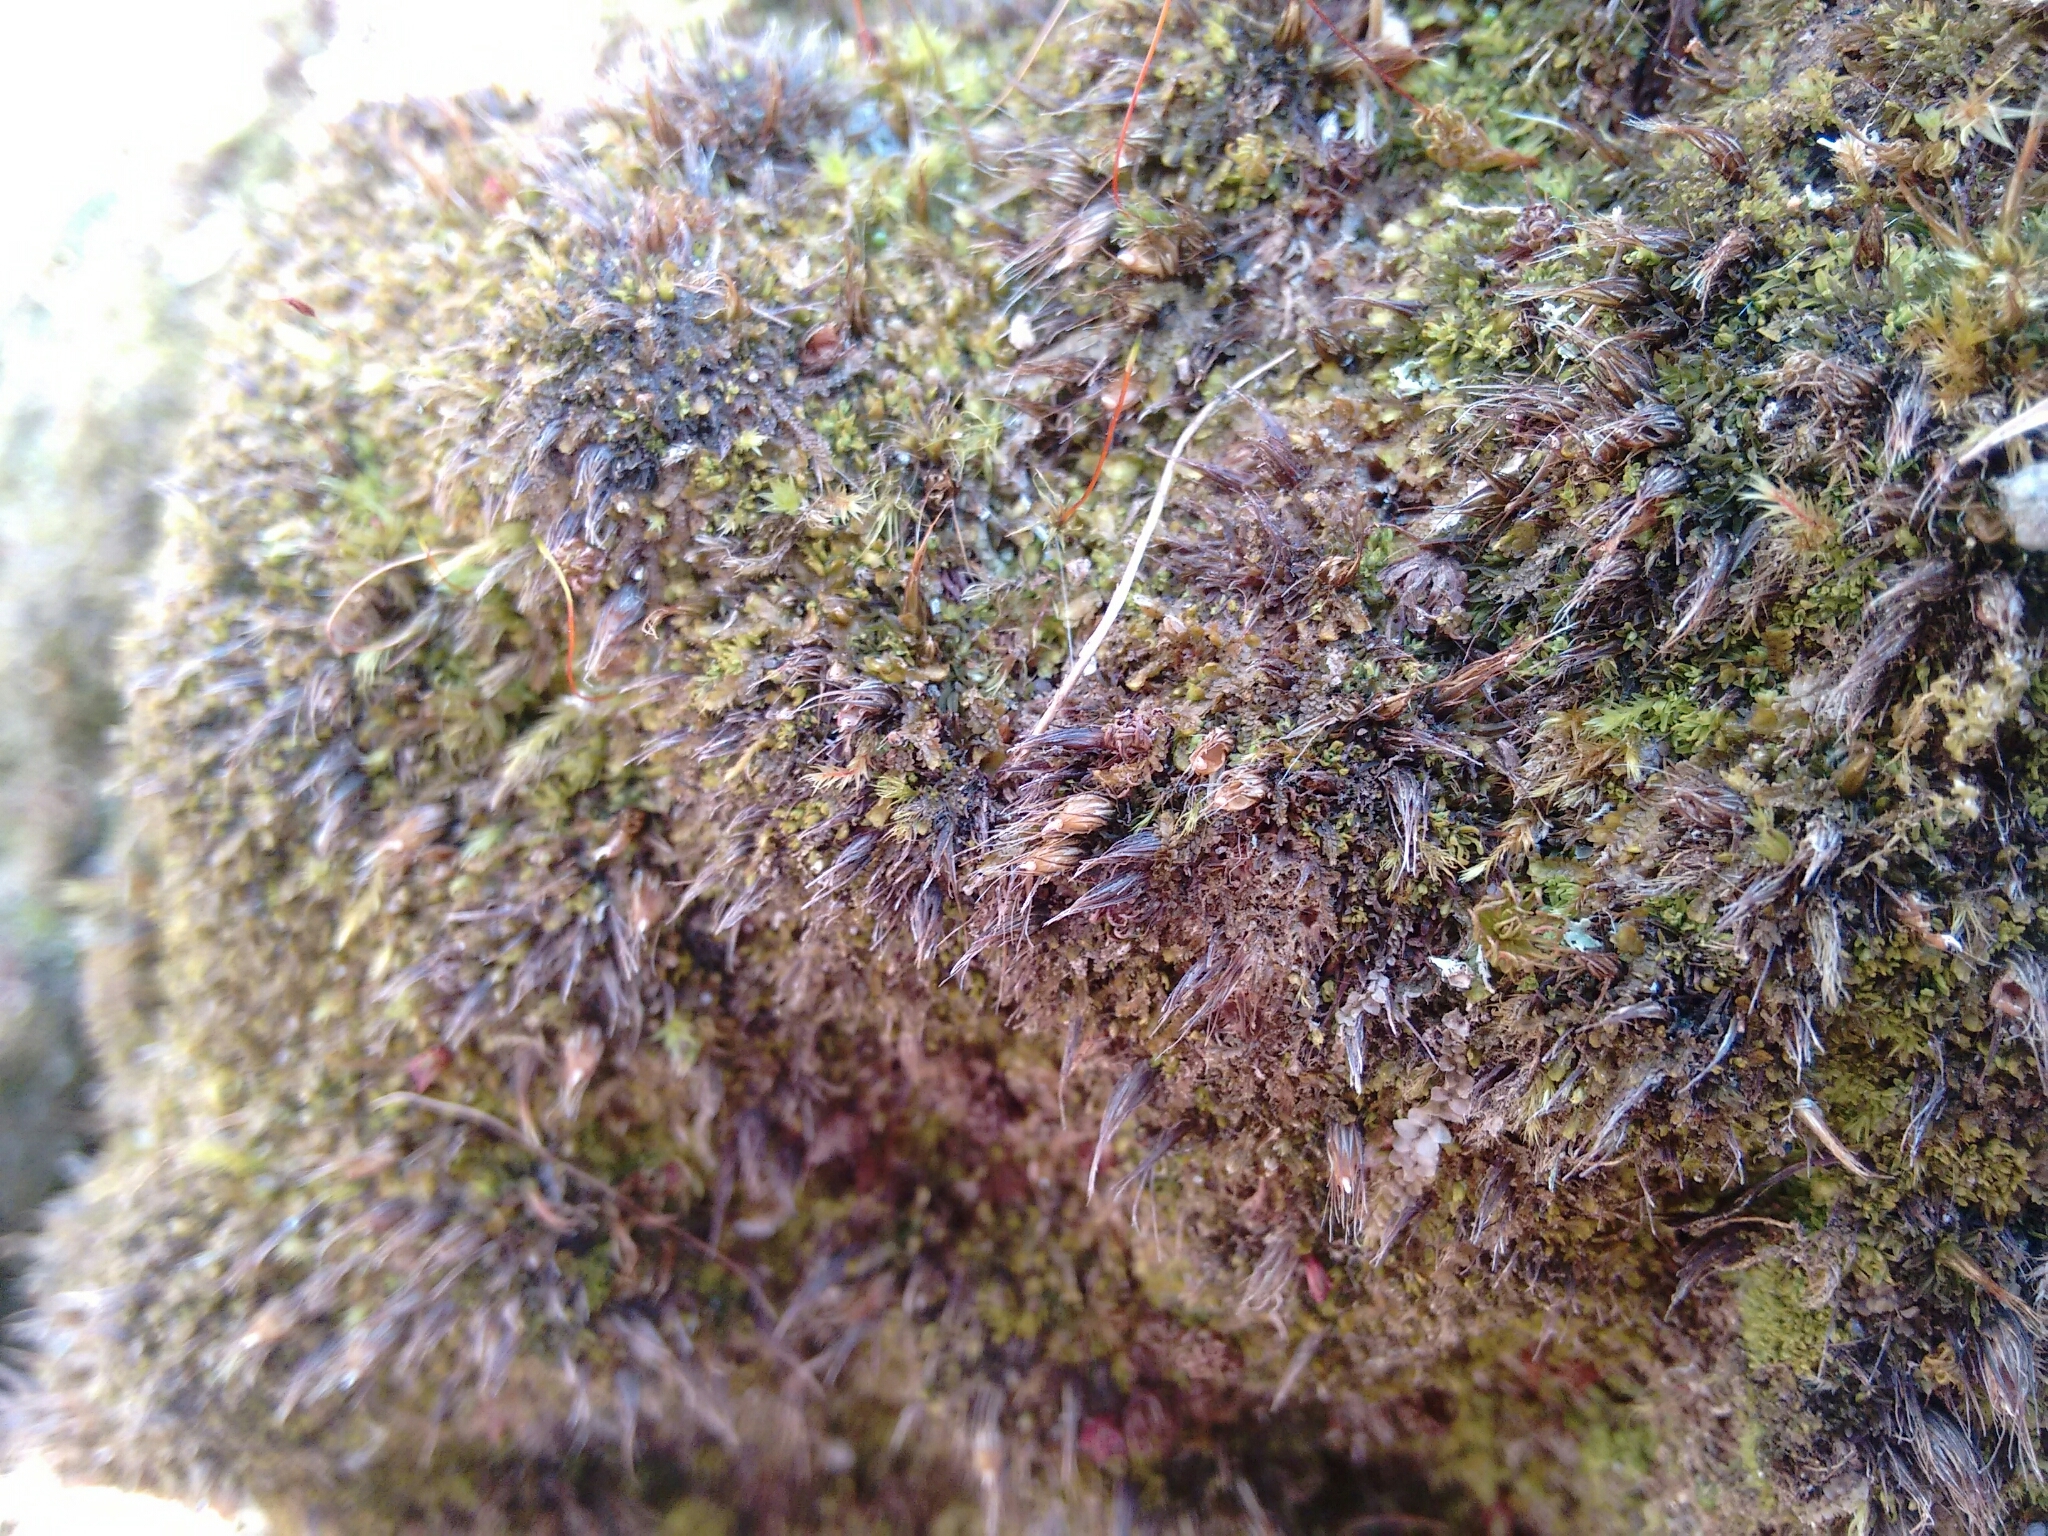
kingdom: Plantae
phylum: Bryophyta
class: Bryopsida
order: Diphysciales
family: Diphysciaceae
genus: Diphyscium
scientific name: Diphyscium foliosum
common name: Nut moss
